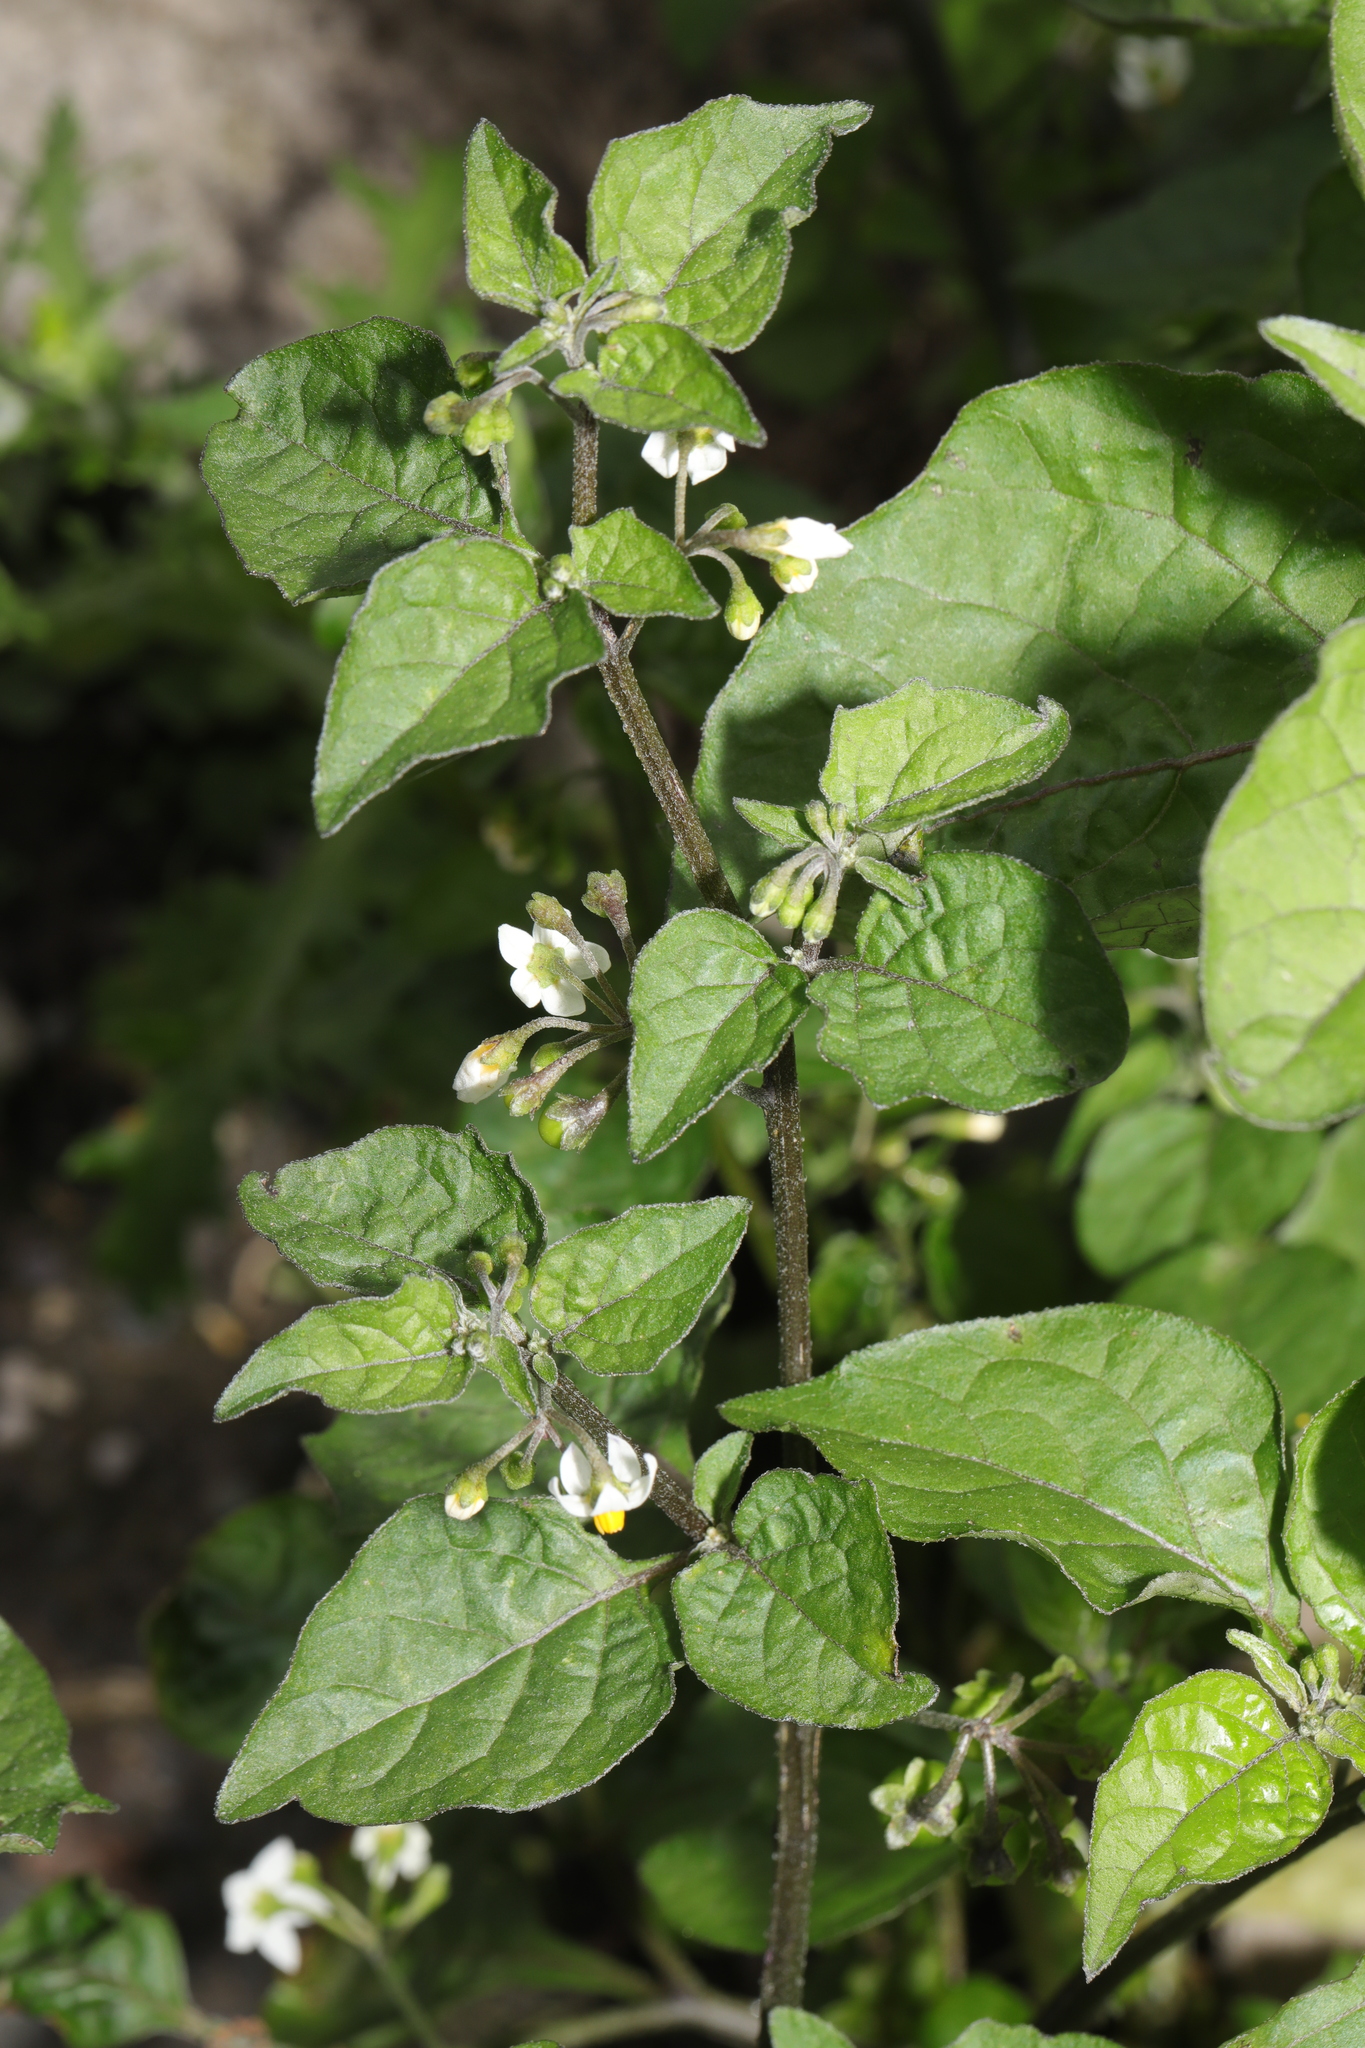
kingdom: Plantae
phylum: Tracheophyta
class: Magnoliopsida
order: Solanales
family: Solanaceae
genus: Solanum
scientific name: Solanum nigrum
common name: Black nightshade
